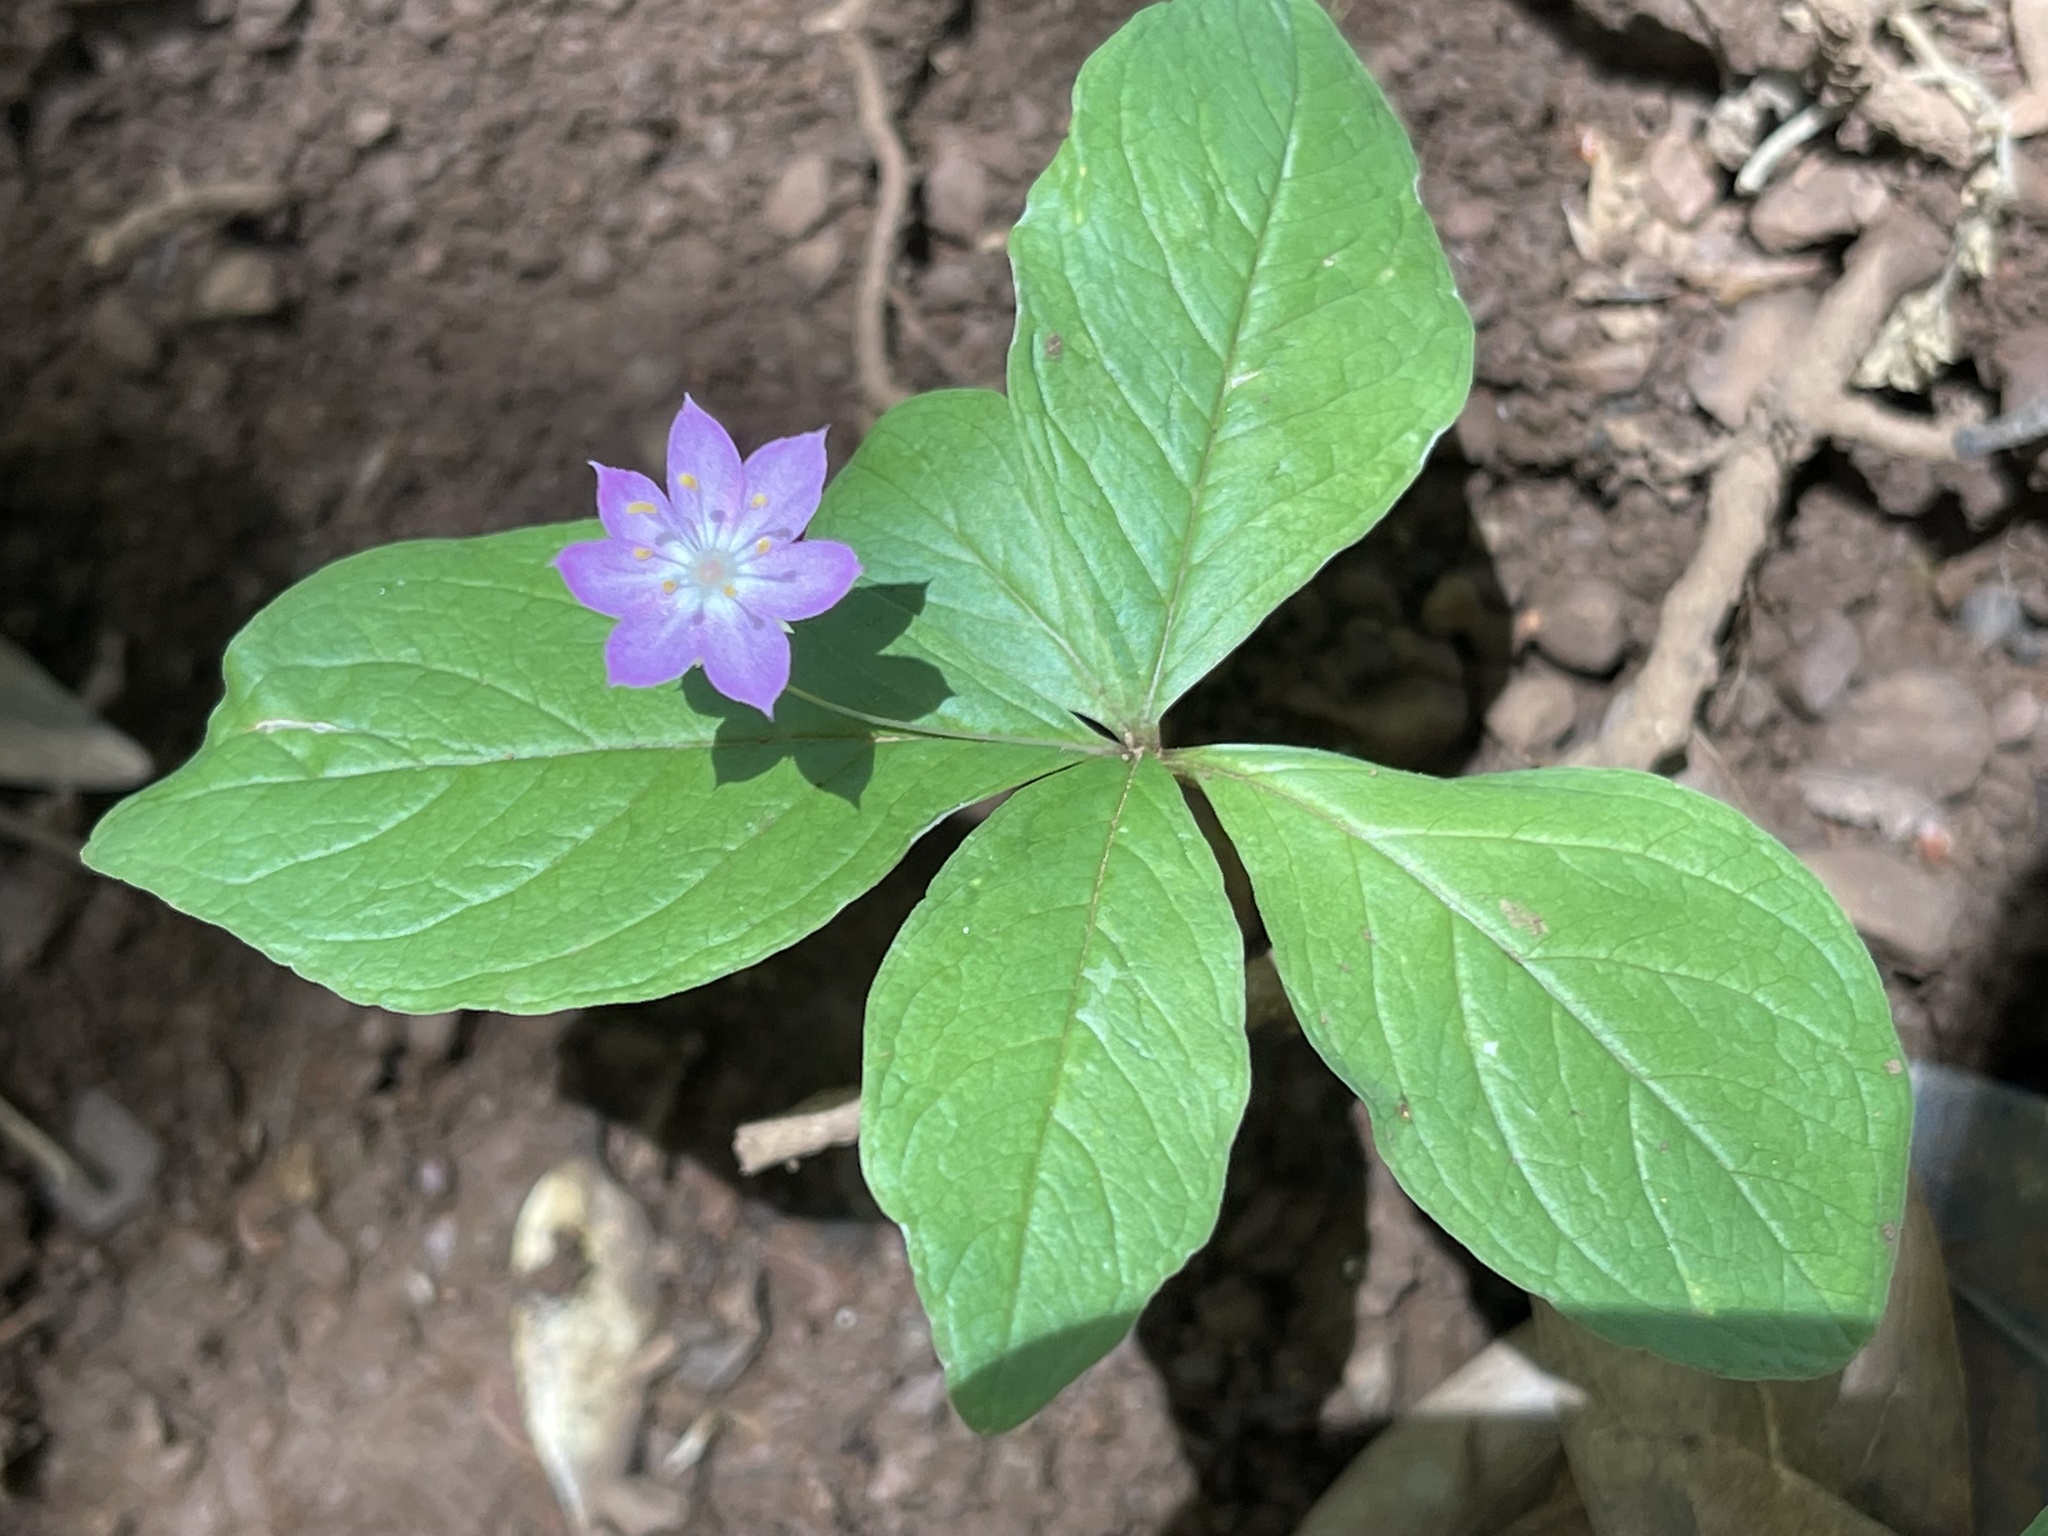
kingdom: Plantae
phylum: Tracheophyta
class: Magnoliopsida
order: Ericales
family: Primulaceae
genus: Lysimachia
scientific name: Lysimachia latifolia
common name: Pacific starflower
